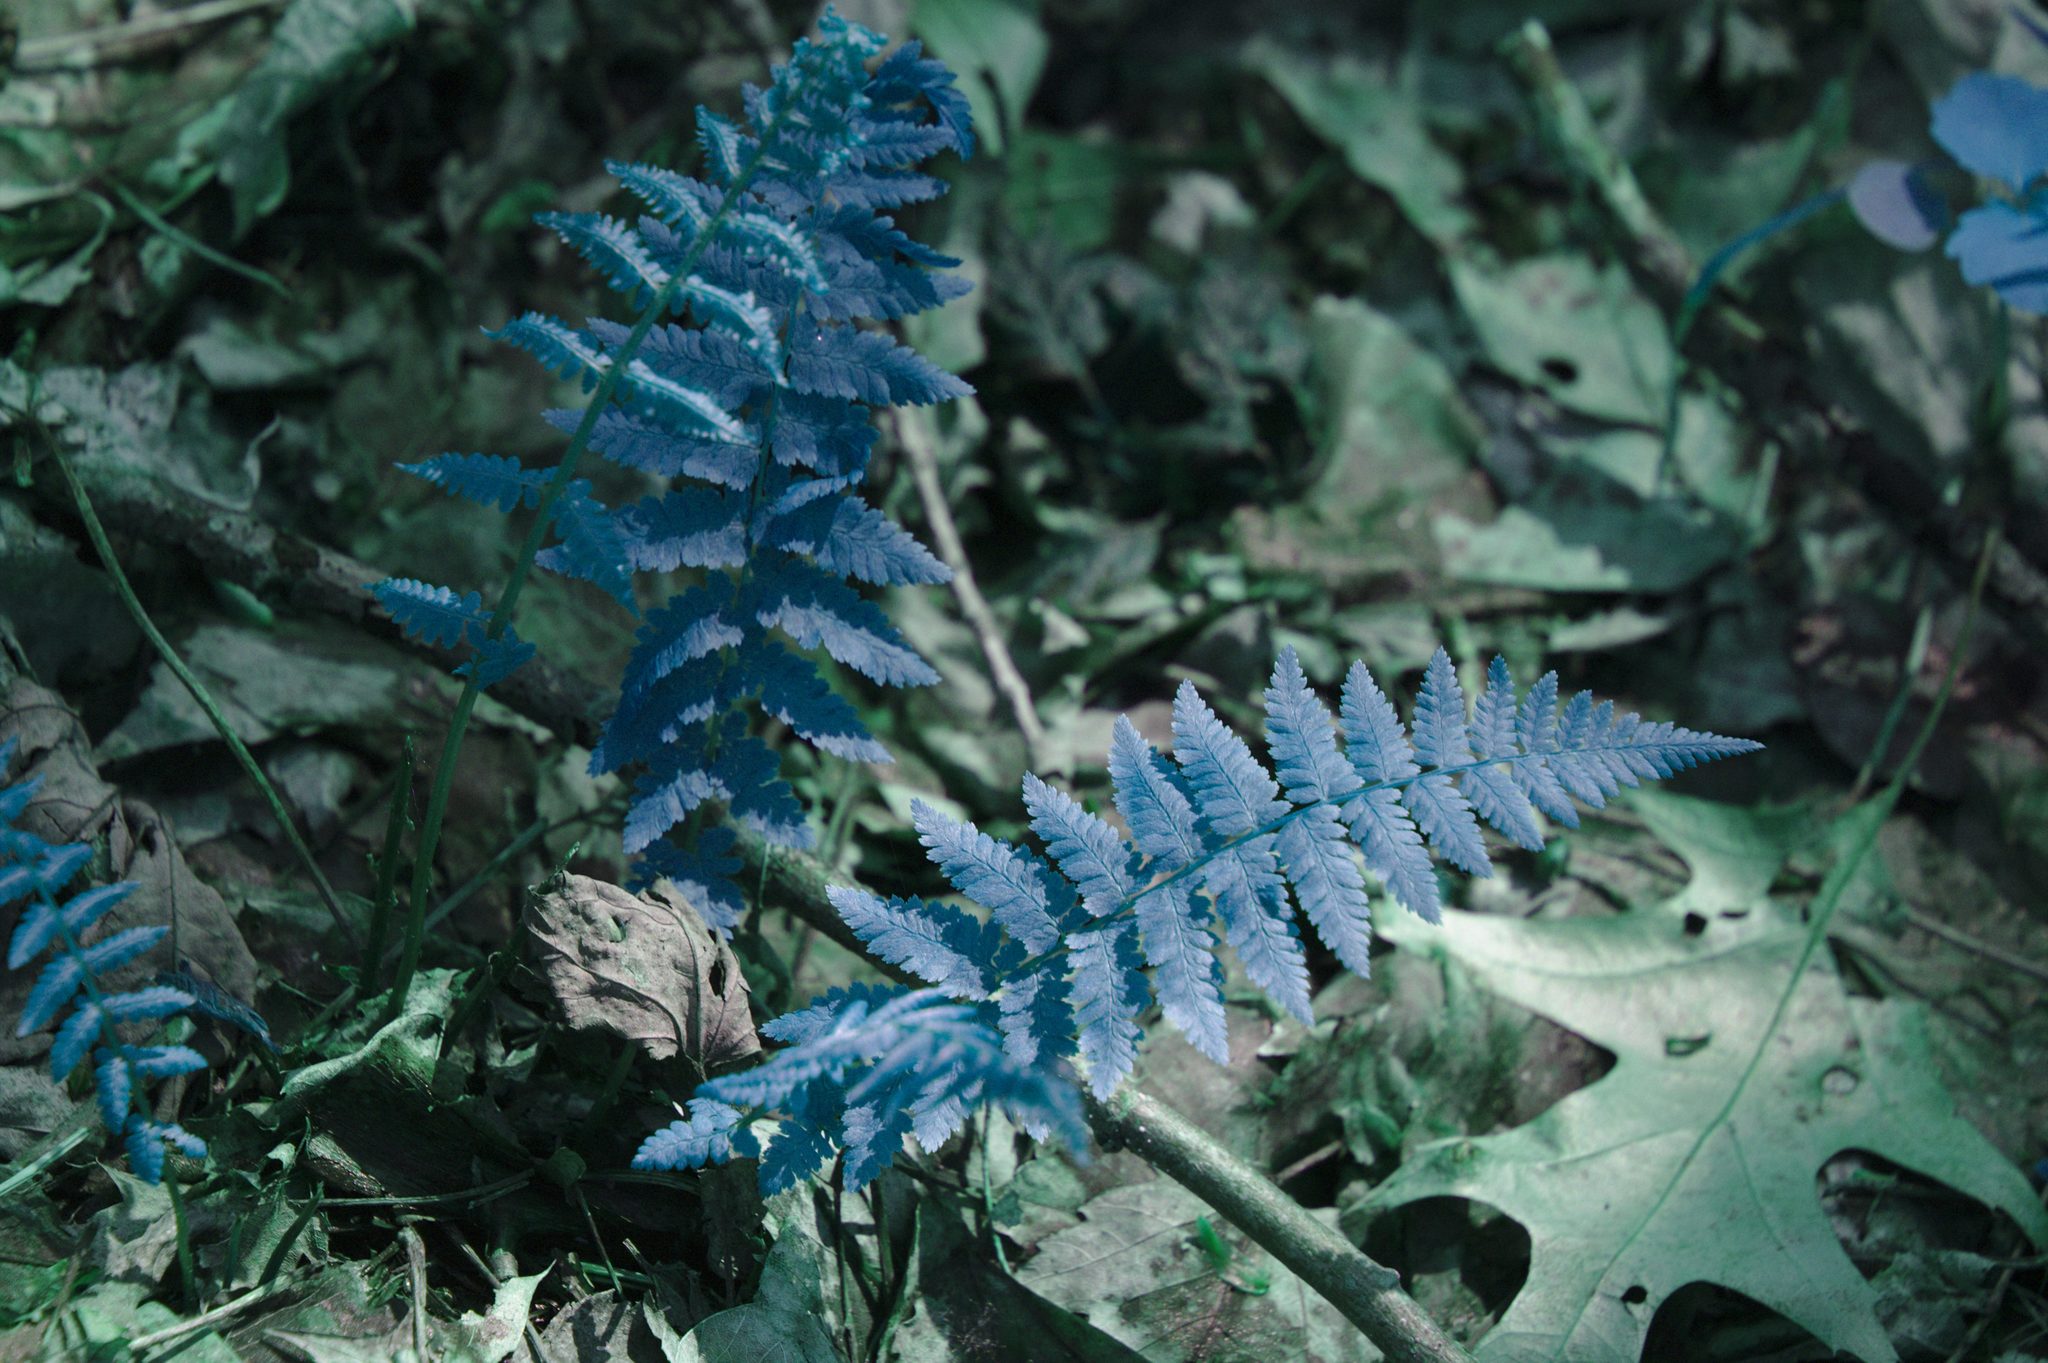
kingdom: Plantae
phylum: Tracheophyta
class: Polypodiopsida
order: Polypodiales
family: Athyriaceae
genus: Athyrium
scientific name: Athyrium angustum
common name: Northern lady fern
